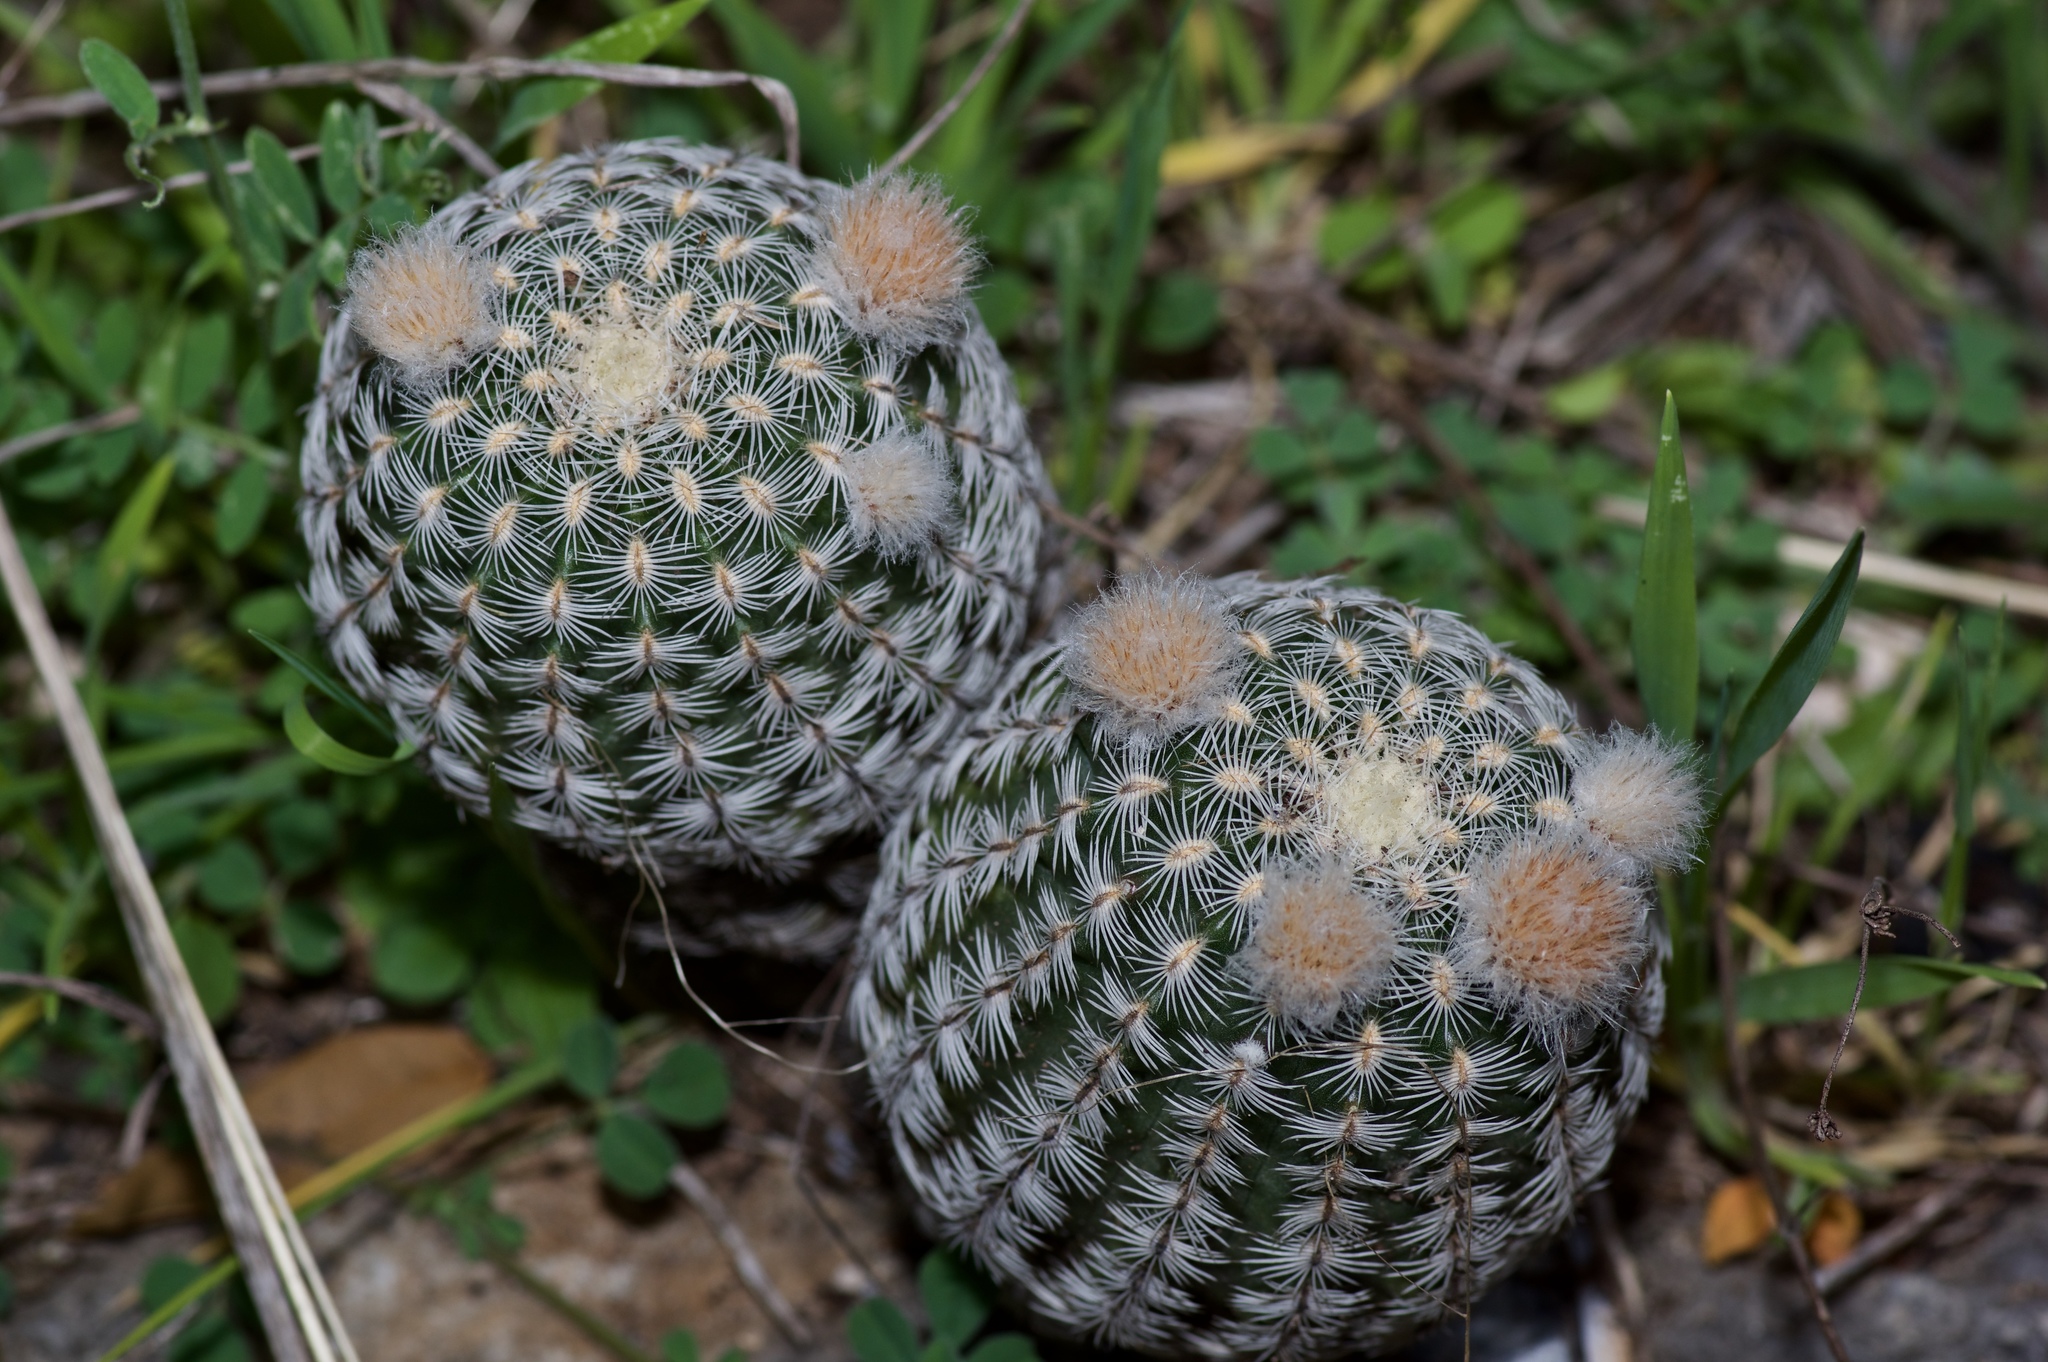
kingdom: Plantae
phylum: Tracheophyta
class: Magnoliopsida
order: Caryophyllales
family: Cactaceae
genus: Echinocereus
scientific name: Echinocereus reichenbachii
